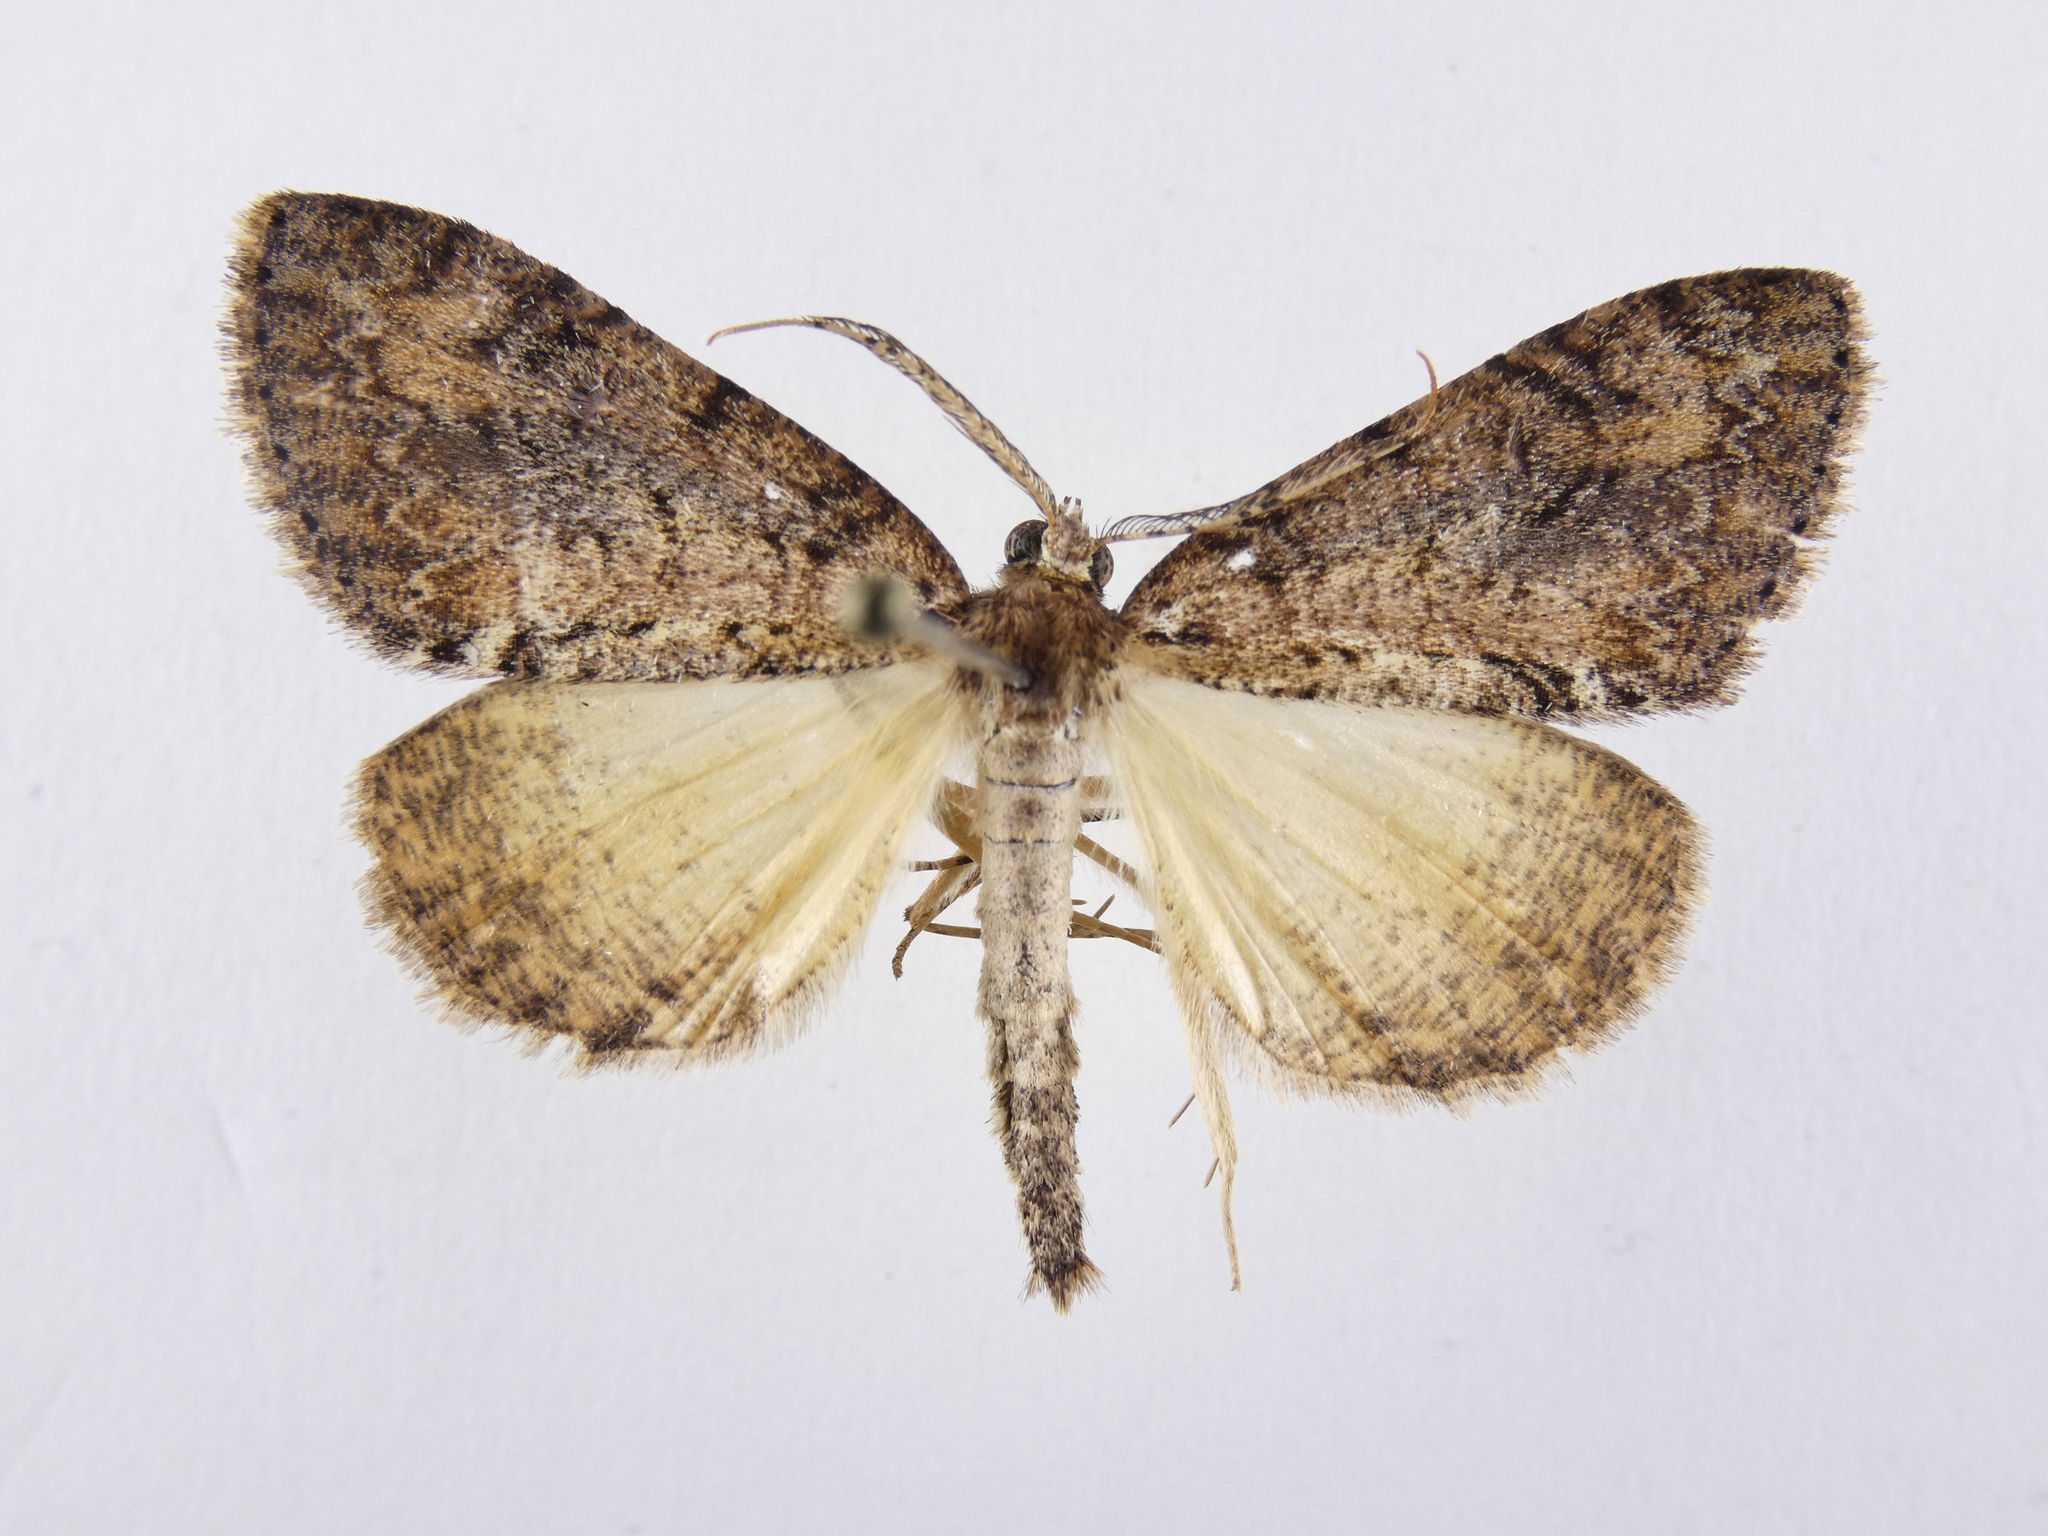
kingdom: Animalia
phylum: Arthropoda
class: Insecta
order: Lepidoptera
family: Geometridae
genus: Pseudocoremia
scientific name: Pseudocoremia suavis
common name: Common forest looper
